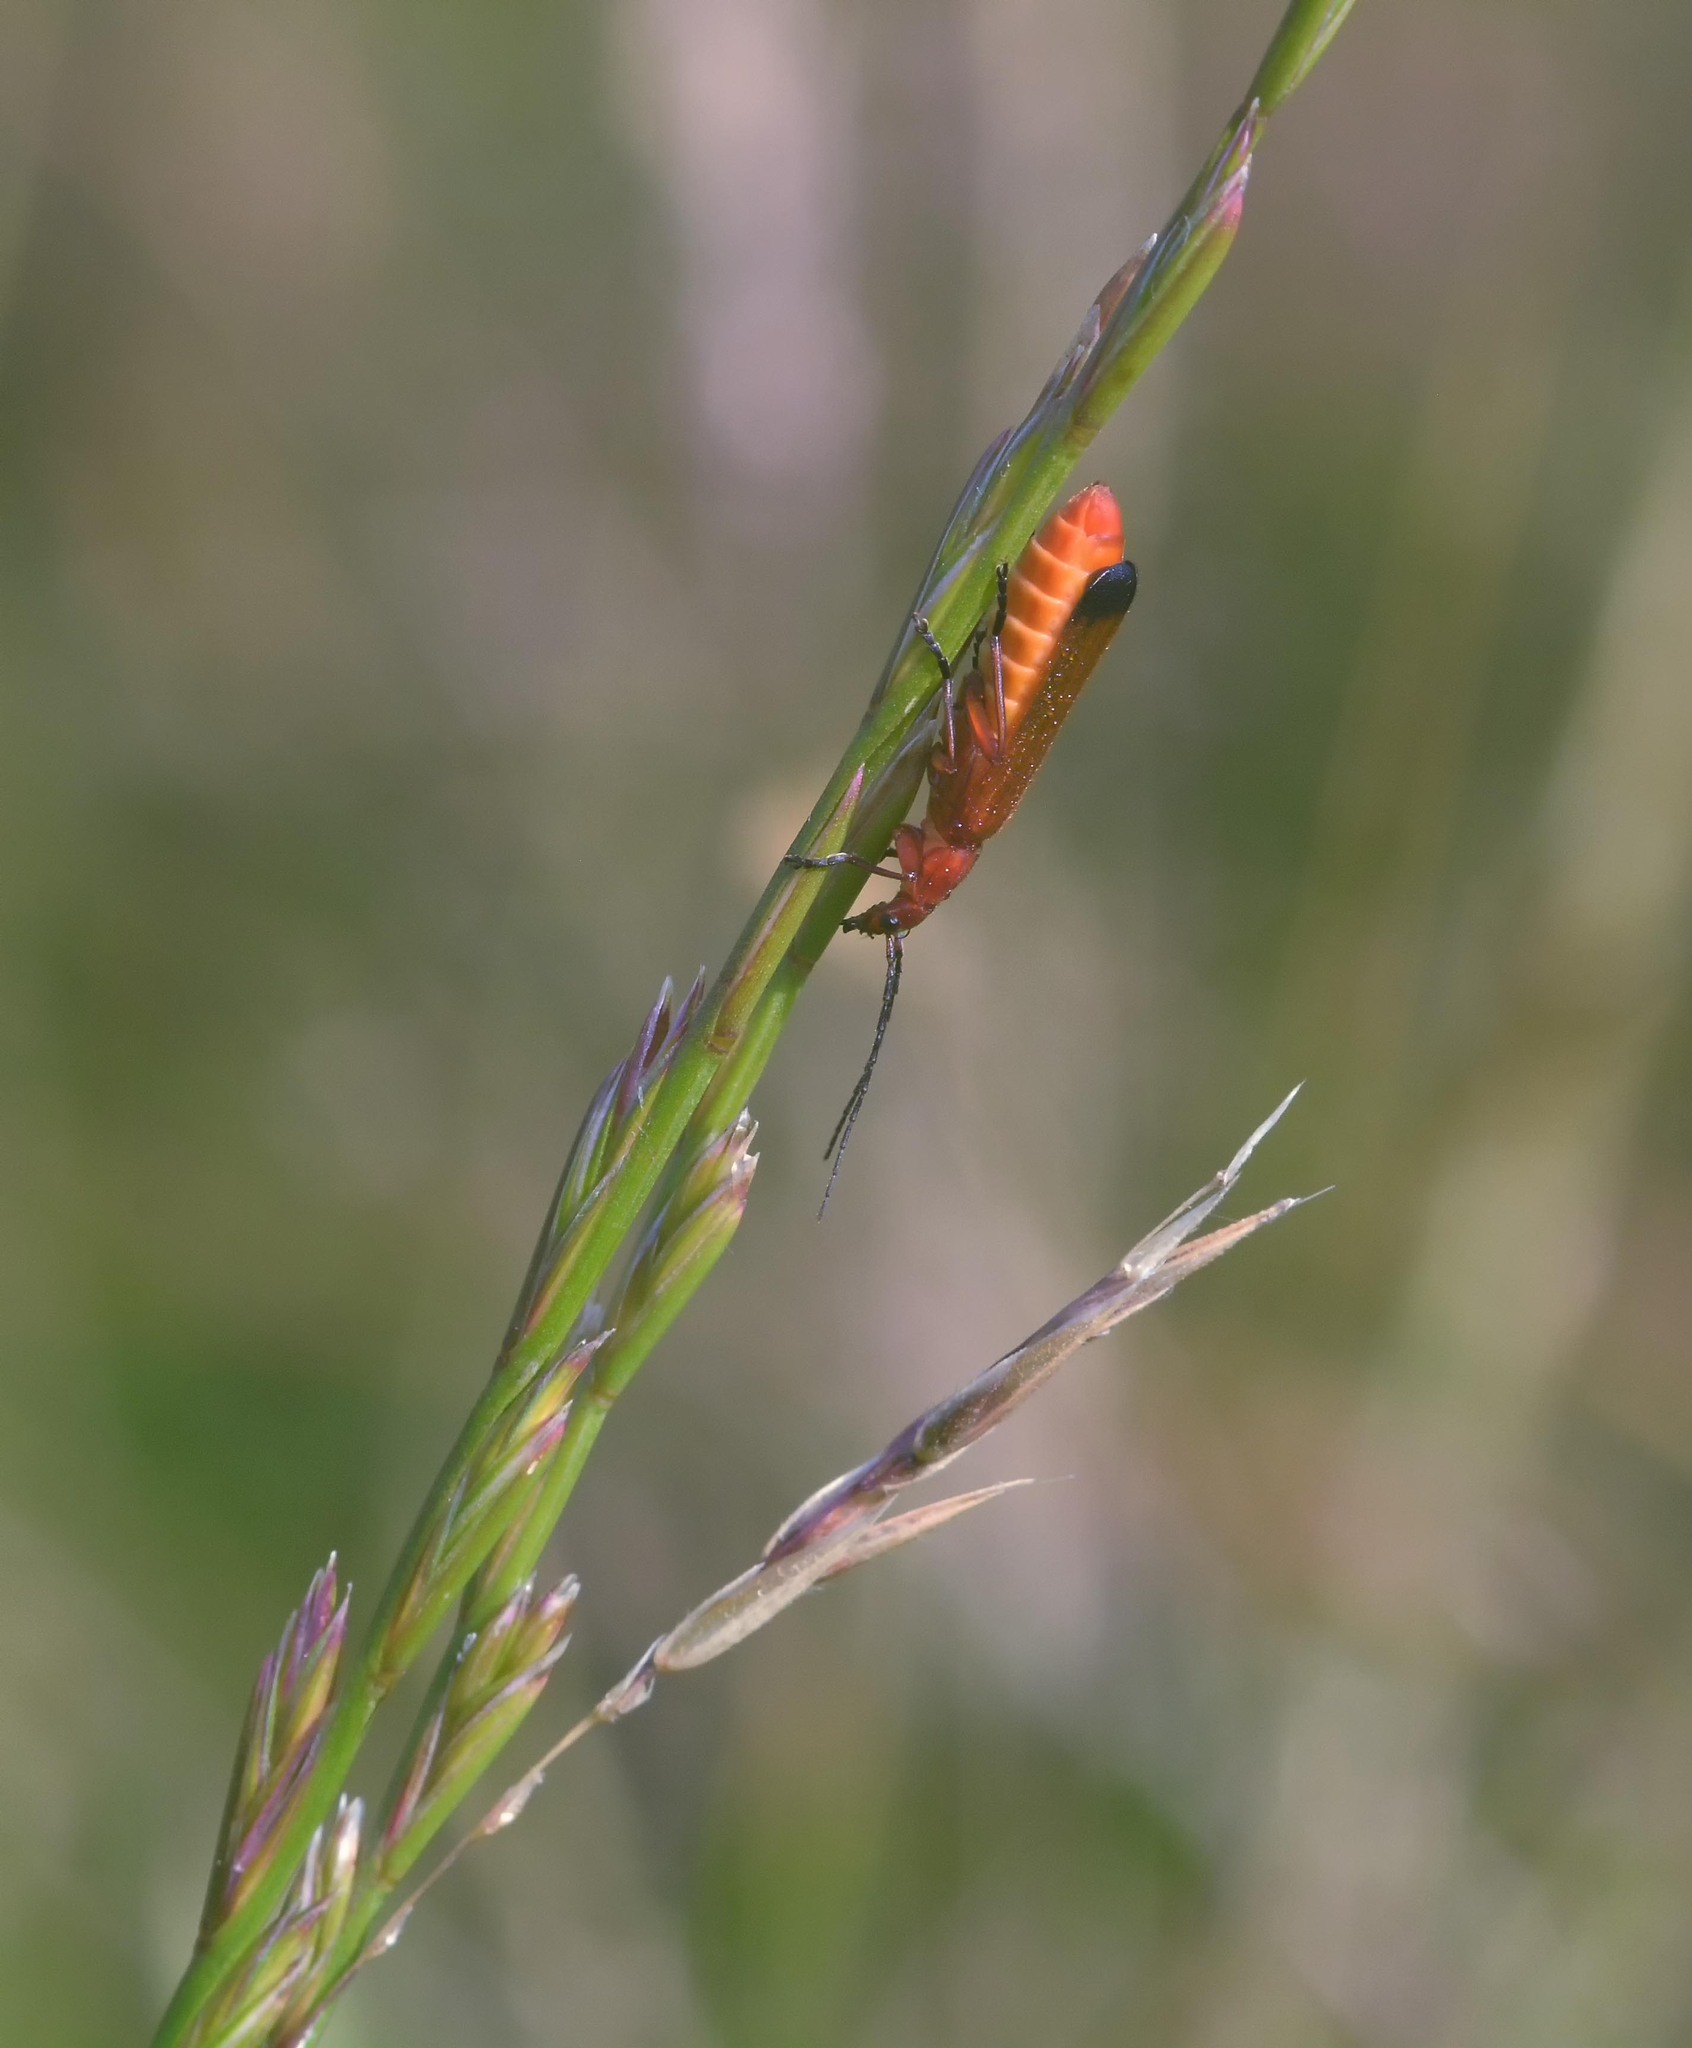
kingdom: Animalia
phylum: Arthropoda
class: Insecta
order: Coleoptera
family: Cantharidae
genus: Rhagonycha
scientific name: Rhagonycha fulva
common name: Common red soldier beetle
